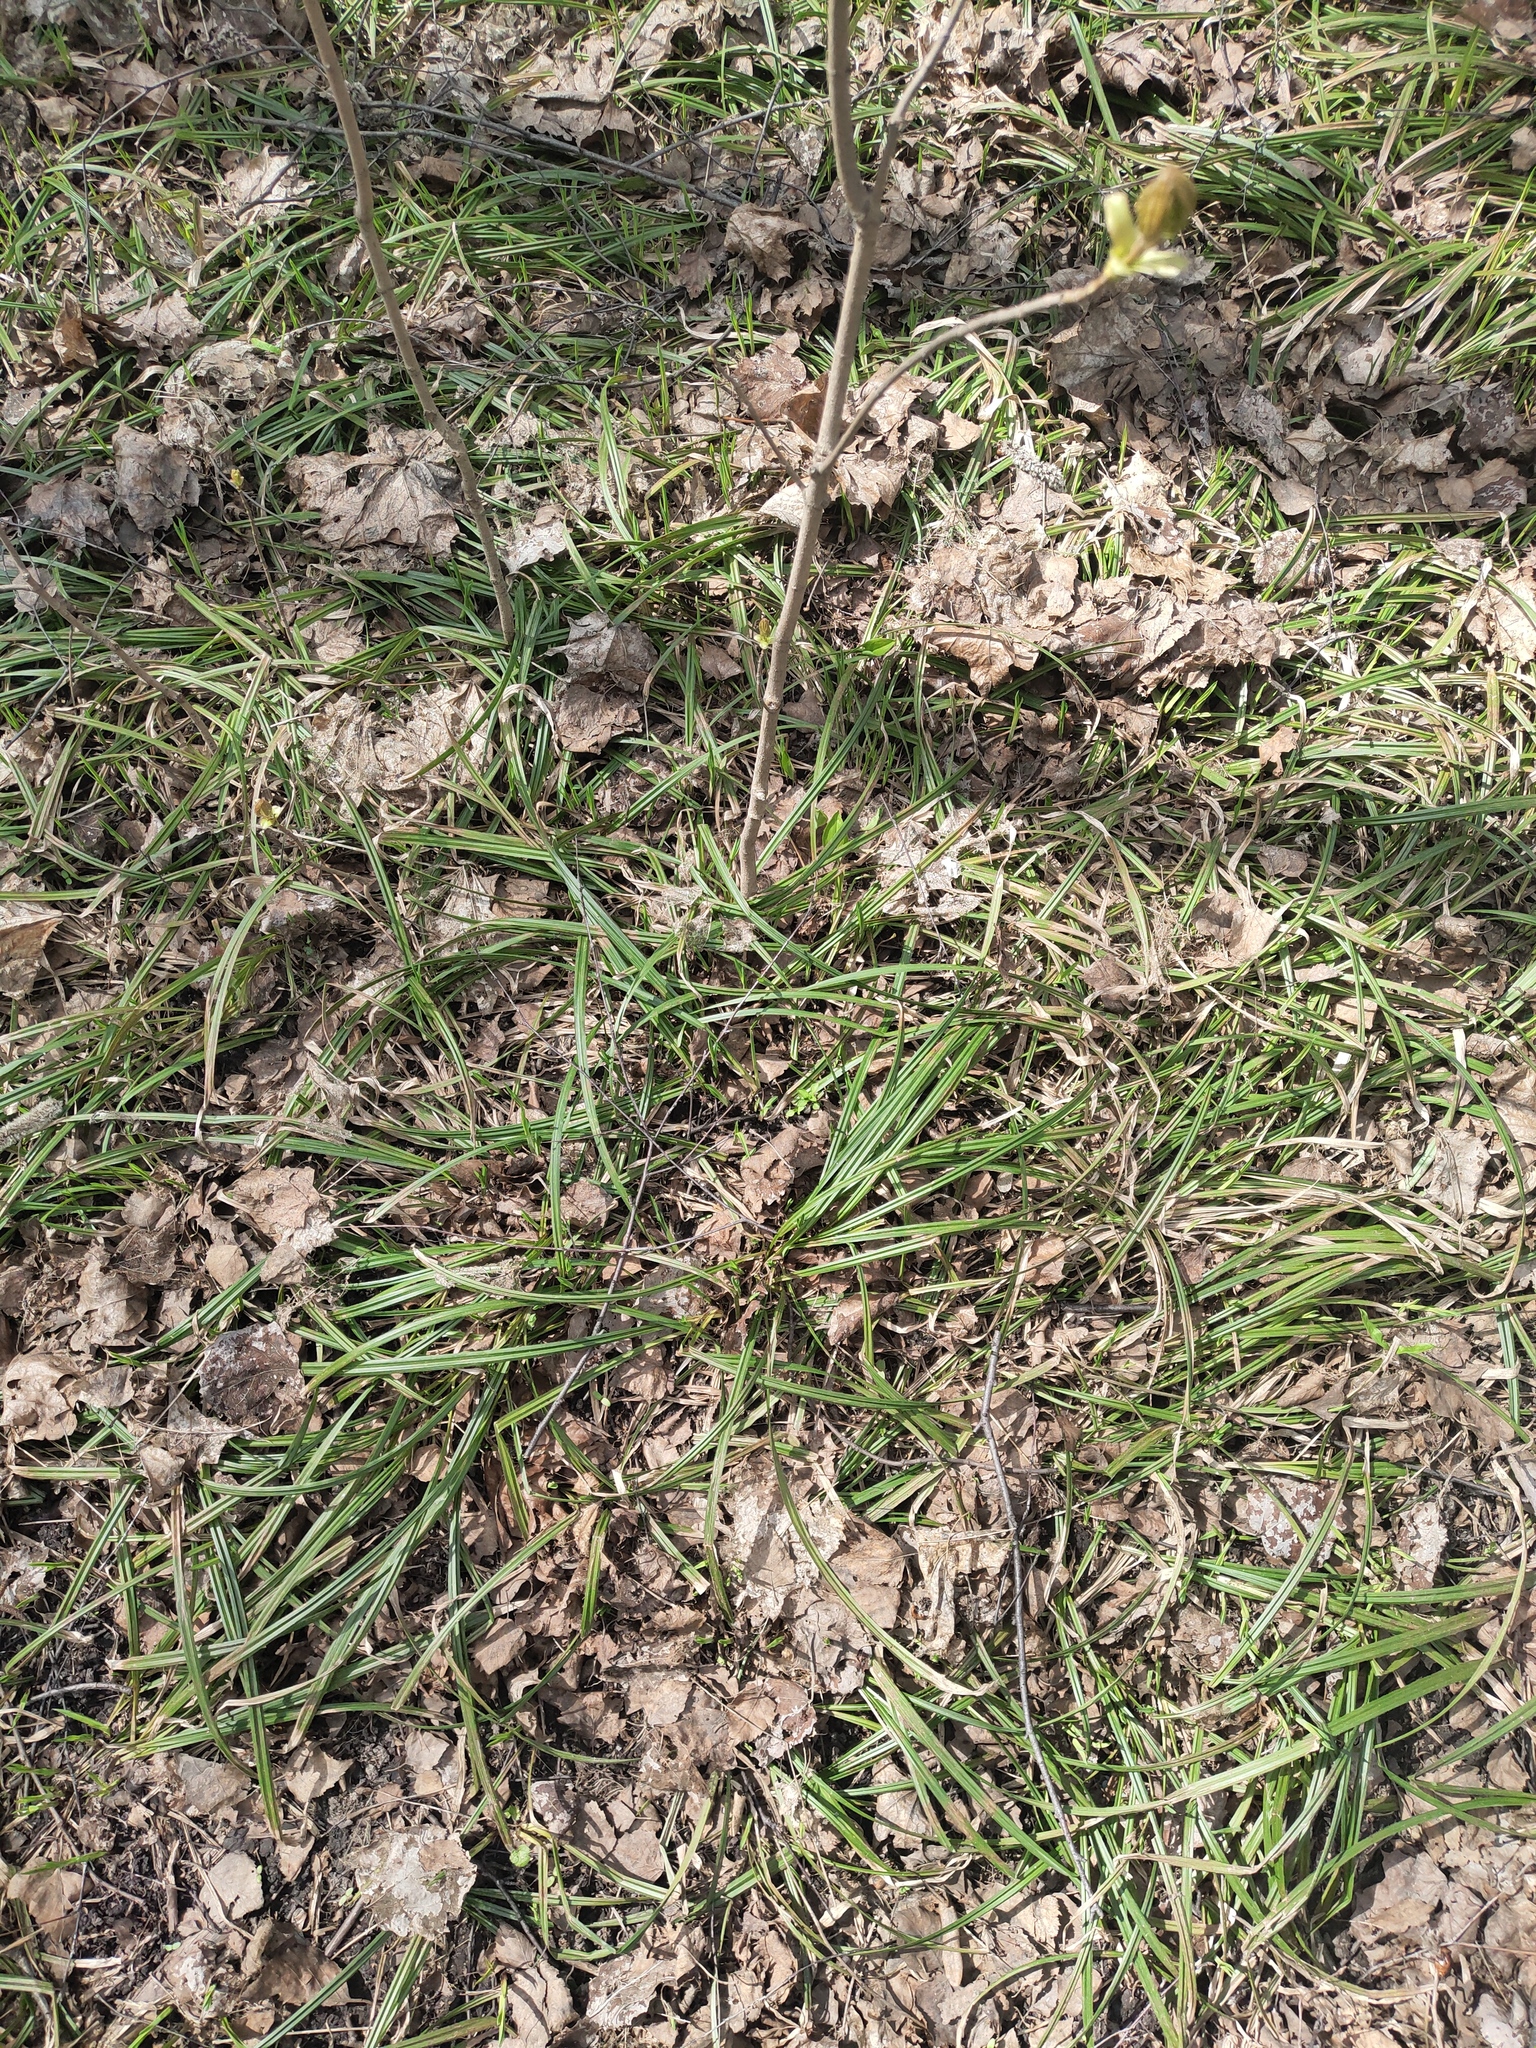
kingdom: Plantae
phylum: Tracheophyta
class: Liliopsida
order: Poales
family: Cyperaceae
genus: Carex
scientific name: Carex pilosa
